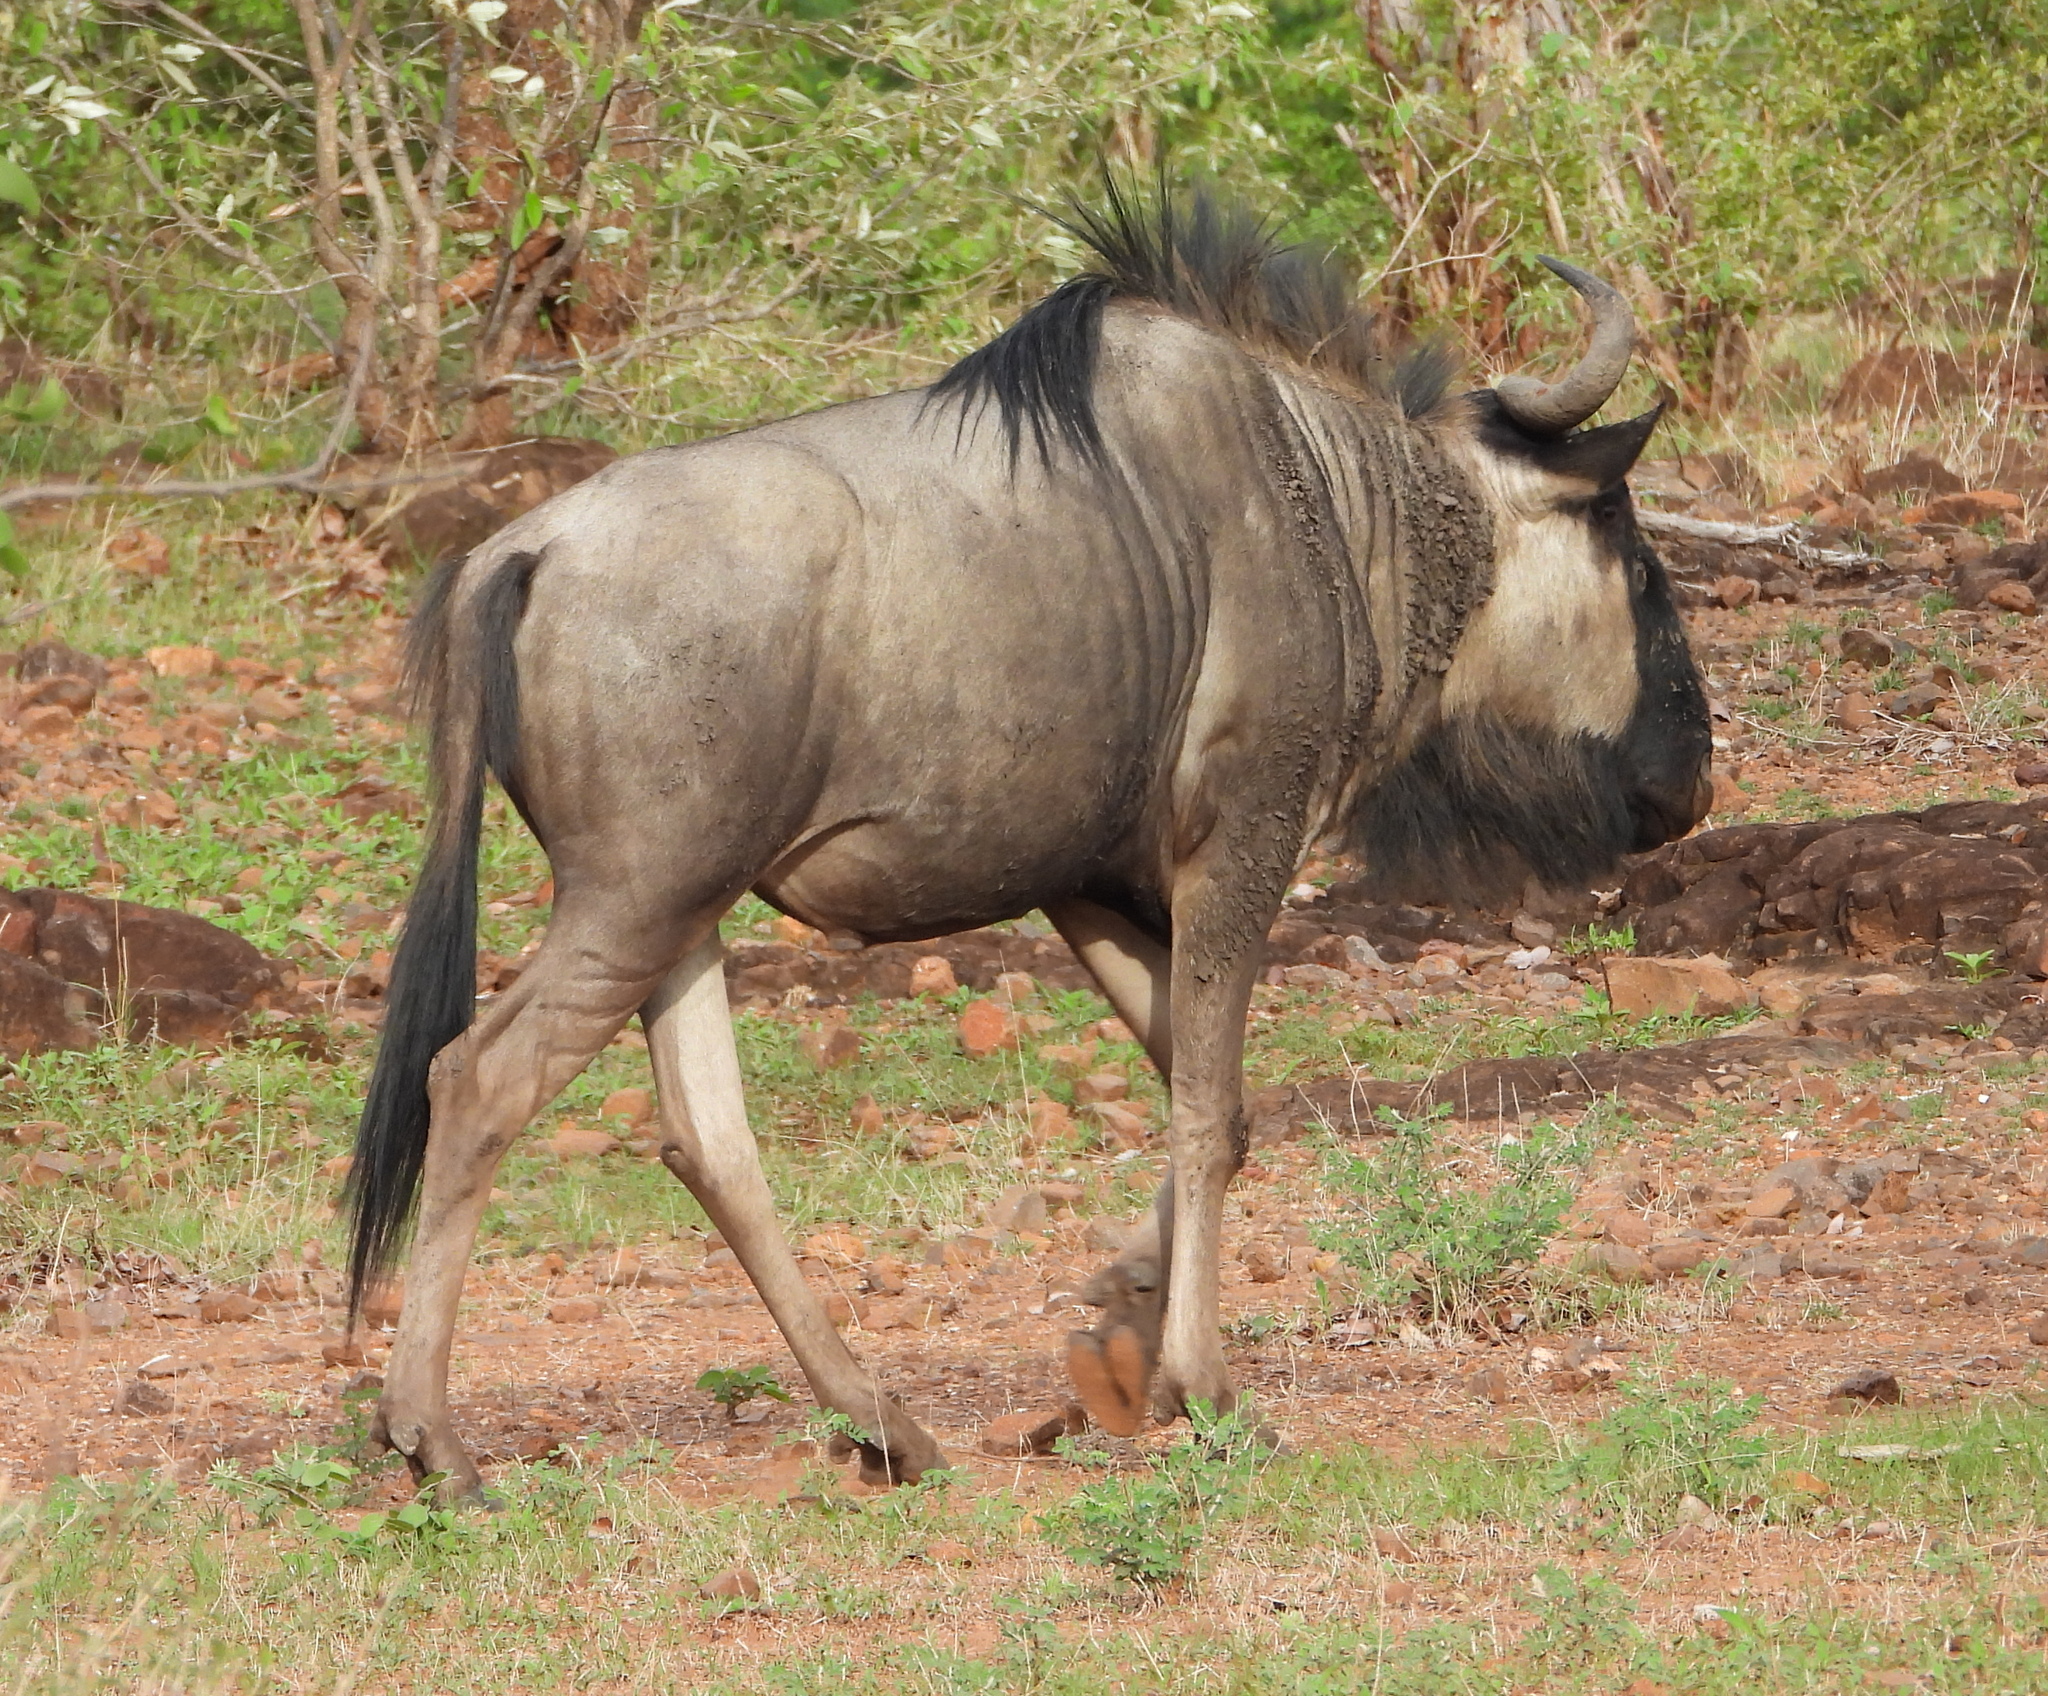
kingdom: Animalia
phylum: Chordata
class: Mammalia
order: Artiodactyla
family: Bovidae
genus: Connochaetes
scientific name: Connochaetes taurinus
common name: Blue wildebeest
